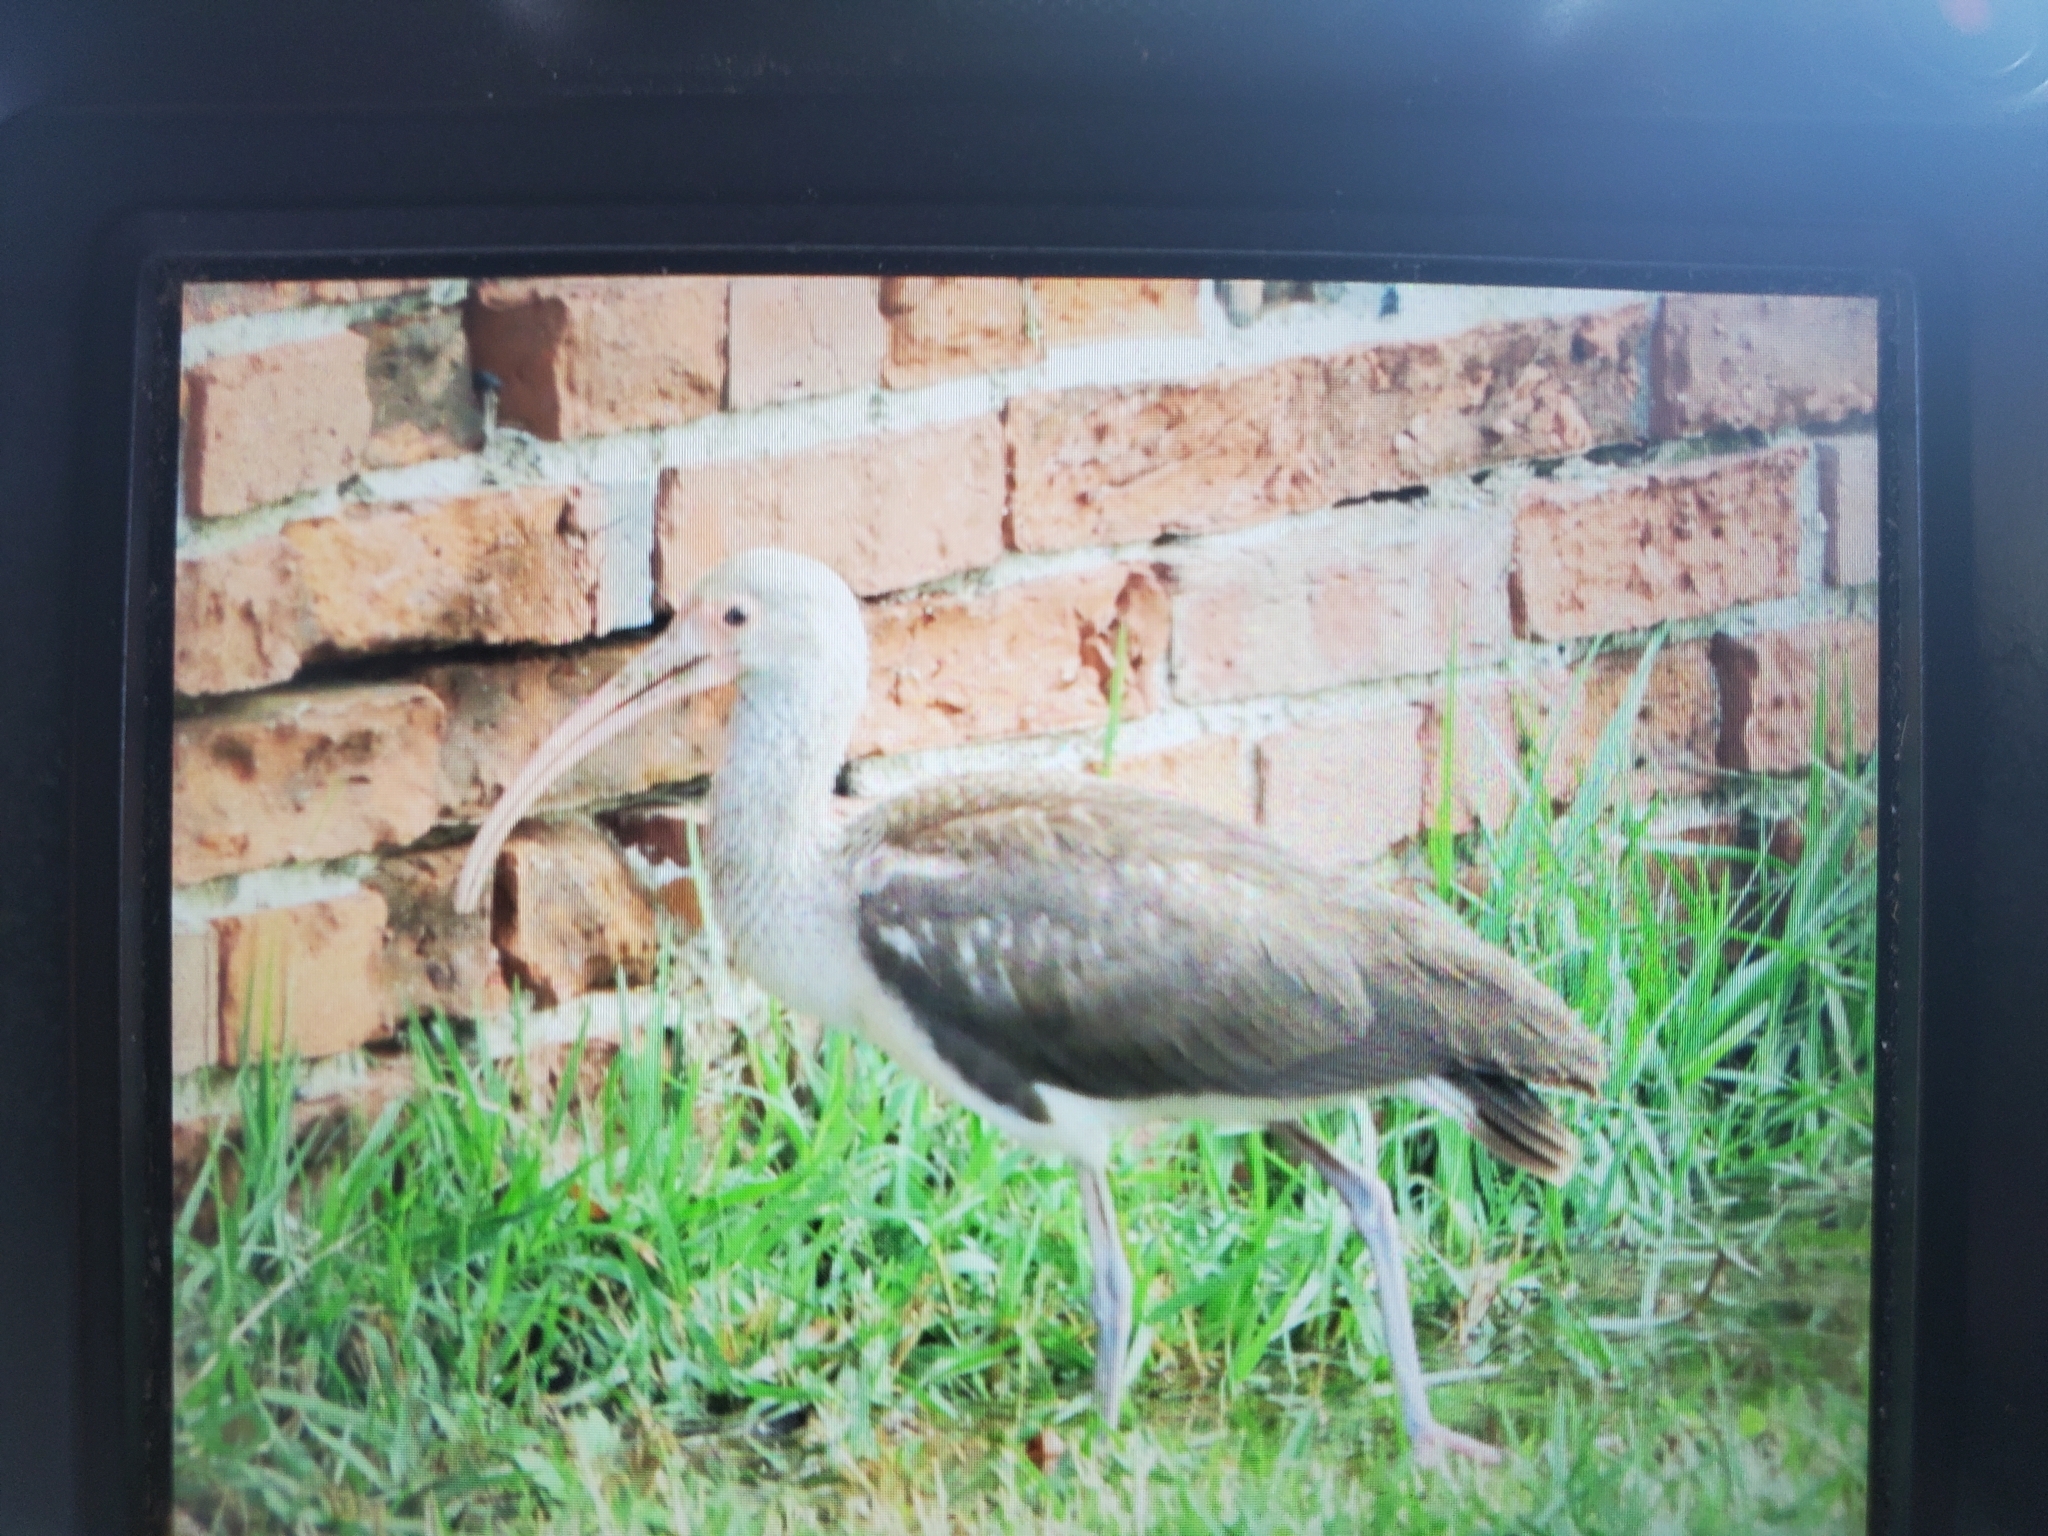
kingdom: Animalia
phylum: Chordata
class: Aves
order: Pelecaniformes
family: Threskiornithidae
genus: Eudocimus
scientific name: Eudocimus albus
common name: White ibis
